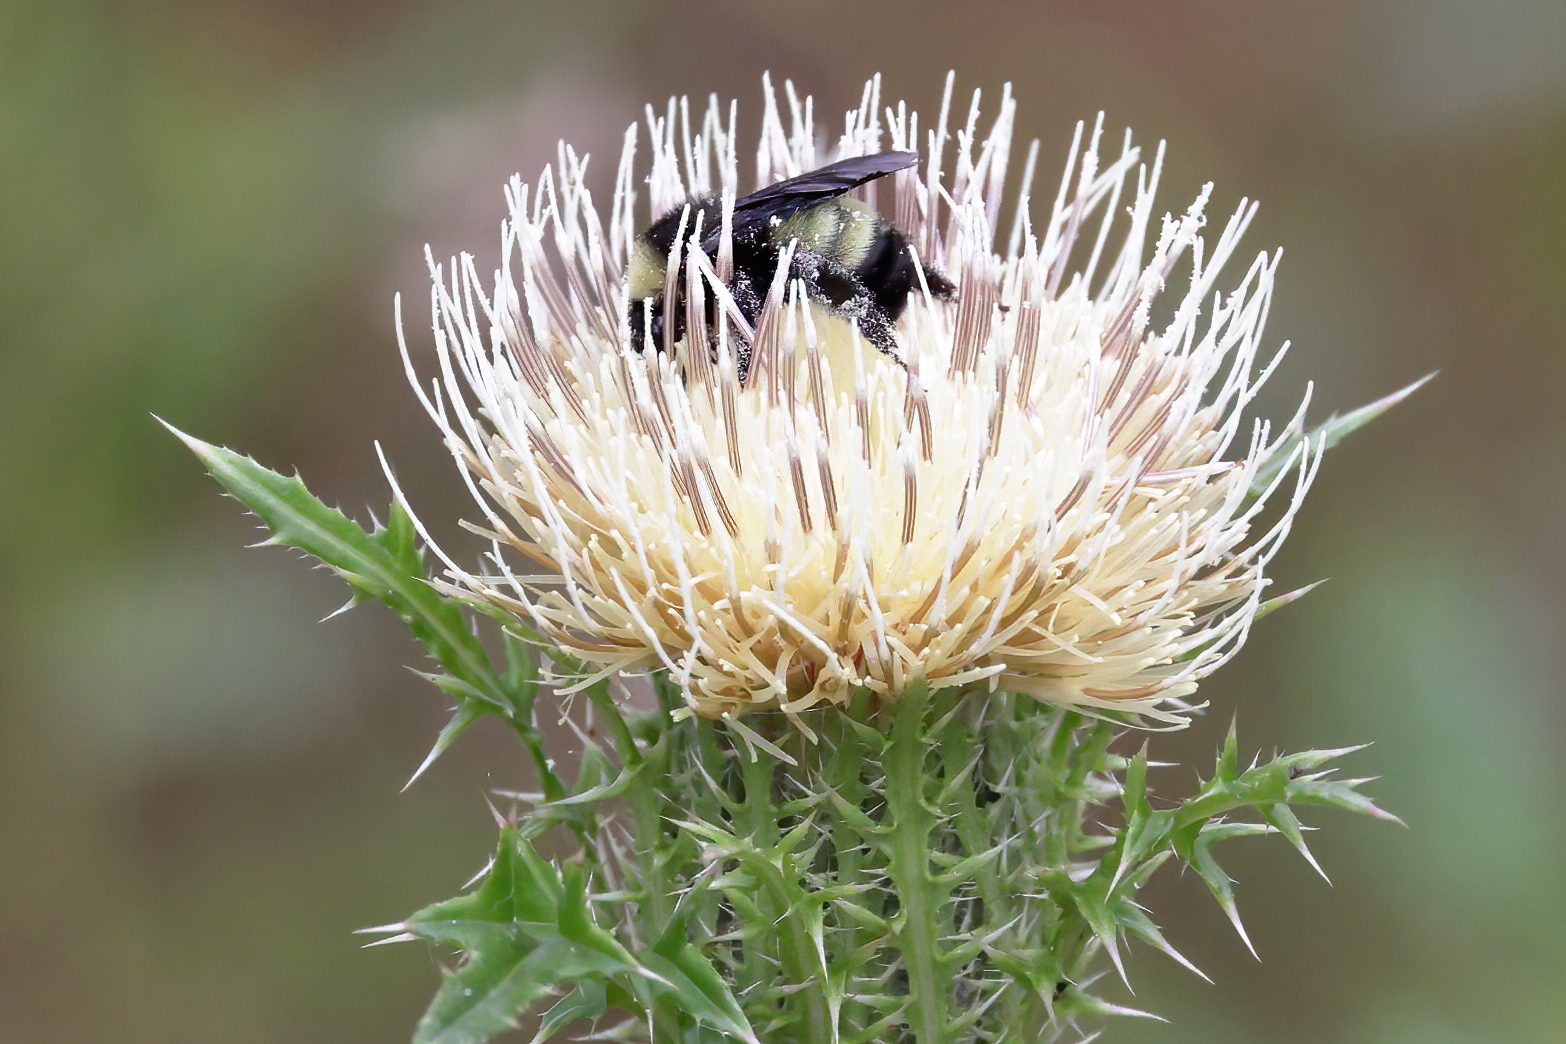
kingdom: Animalia
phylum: Arthropoda
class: Insecta
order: Hymenoptera
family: Apidae
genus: Bombus
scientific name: Bombus pensylvanicus
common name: Bumble bee
